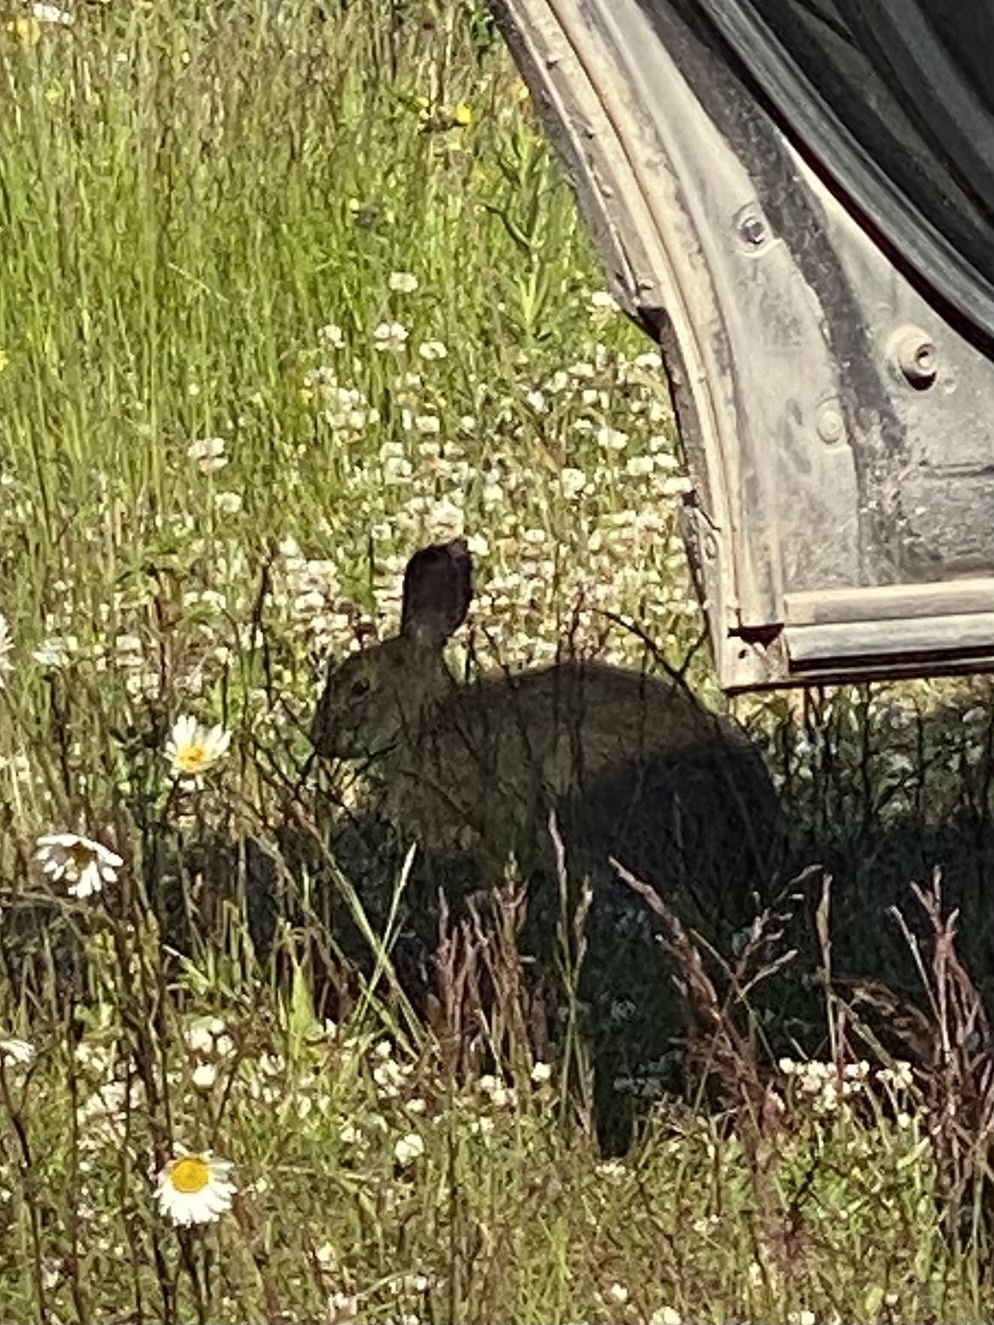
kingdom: Animalia
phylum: Chordata
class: Mammalia
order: Lagomorpha
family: Leporidae
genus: Lepus
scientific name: Lepus americanus
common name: Snowshoe hare
